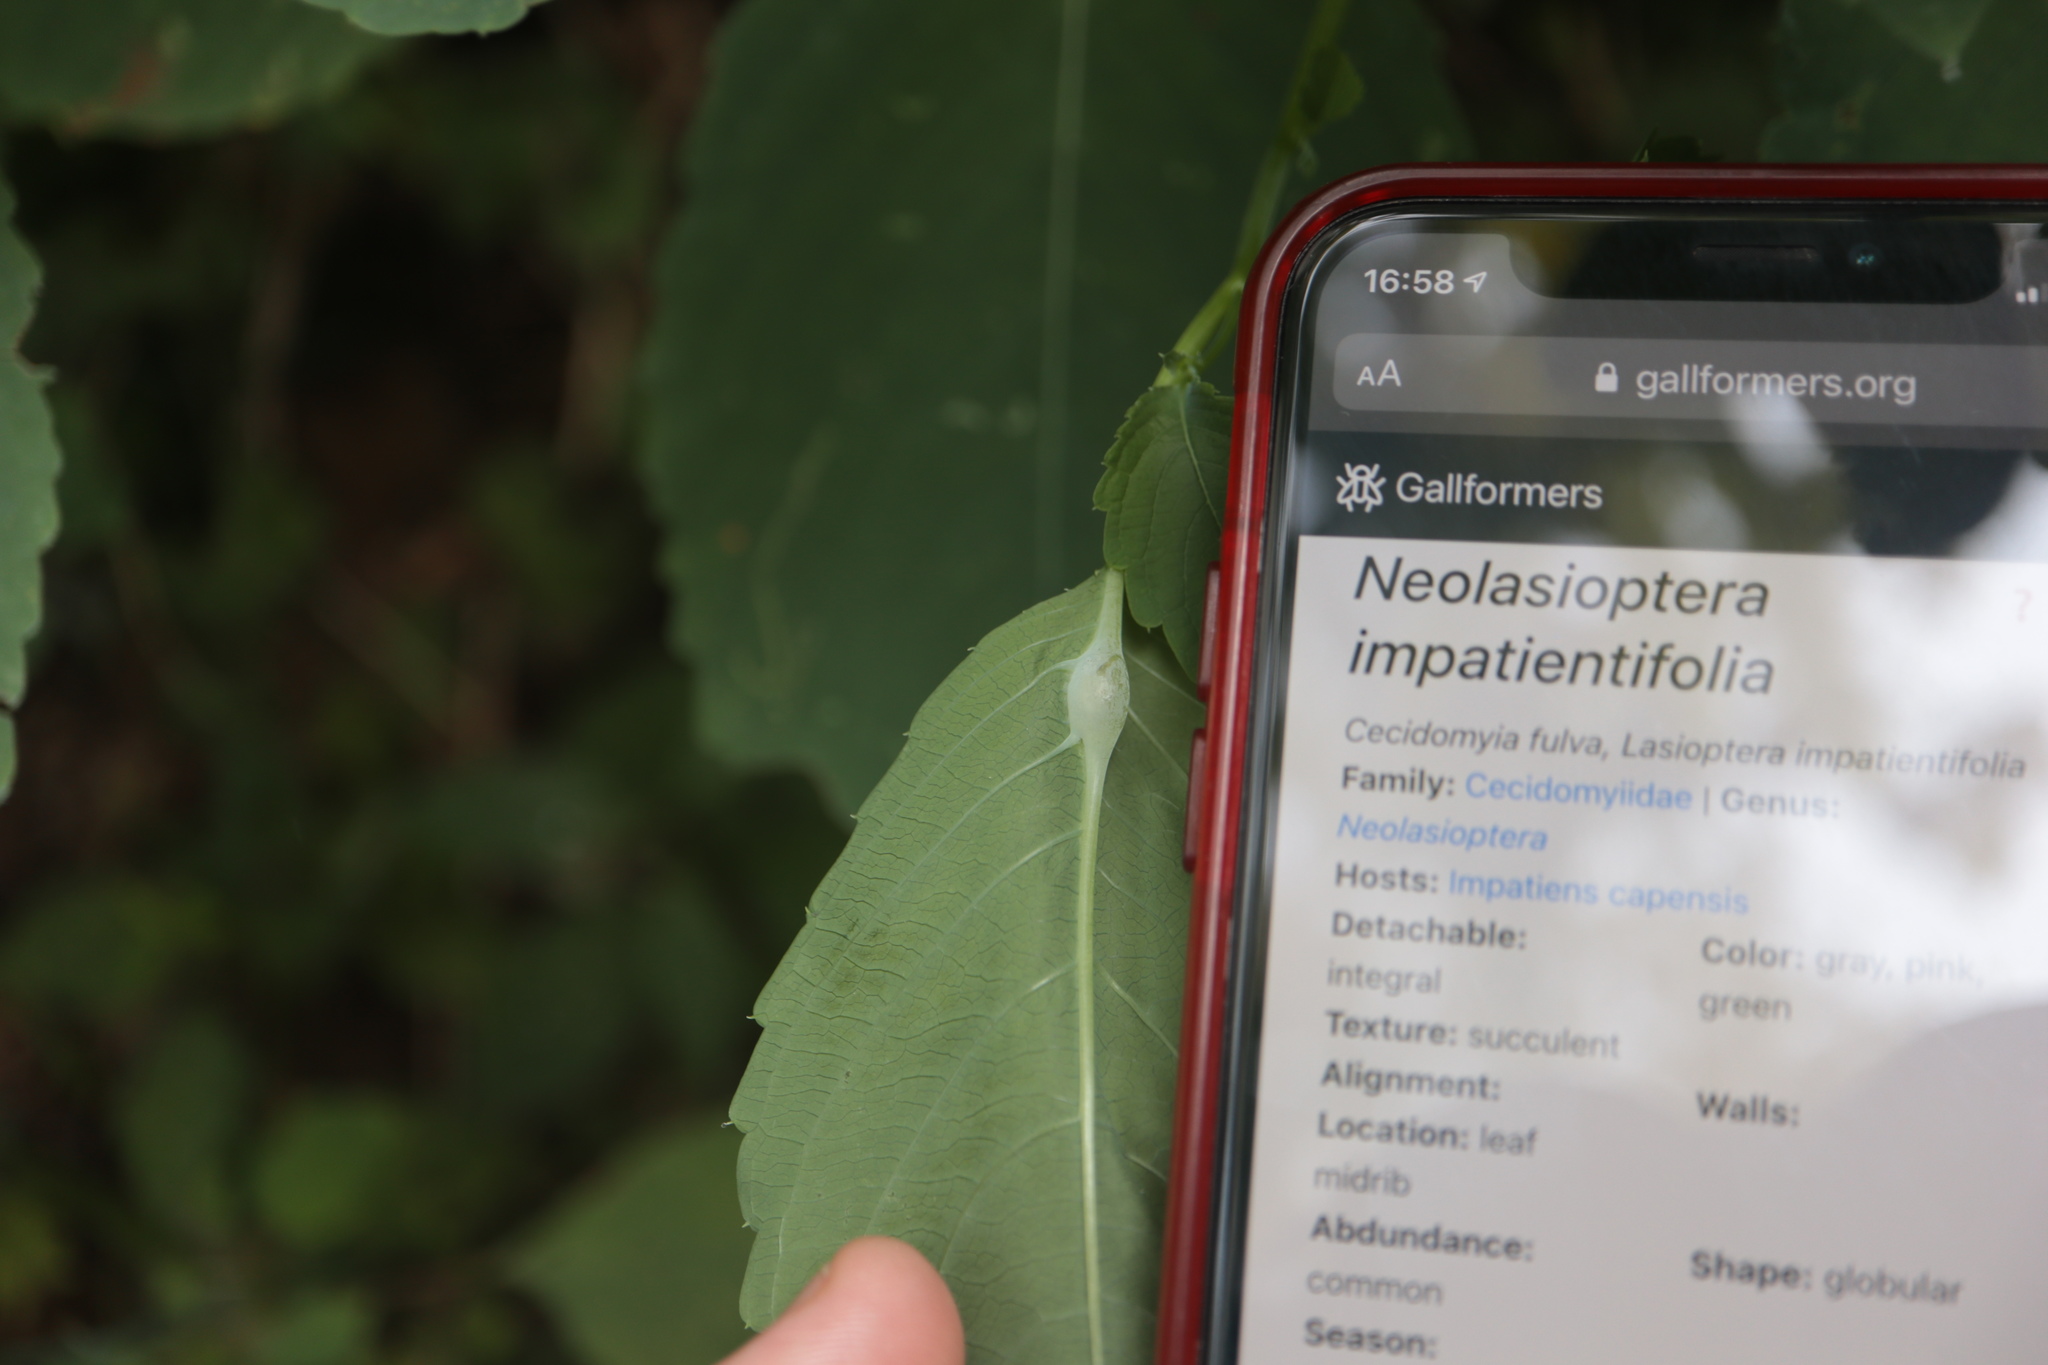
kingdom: Animalia
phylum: Arthropoda
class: Insecta
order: Diptera
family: Cecidomyiidae
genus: Neolasioptera
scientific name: Neolasioptera impatientifolia
